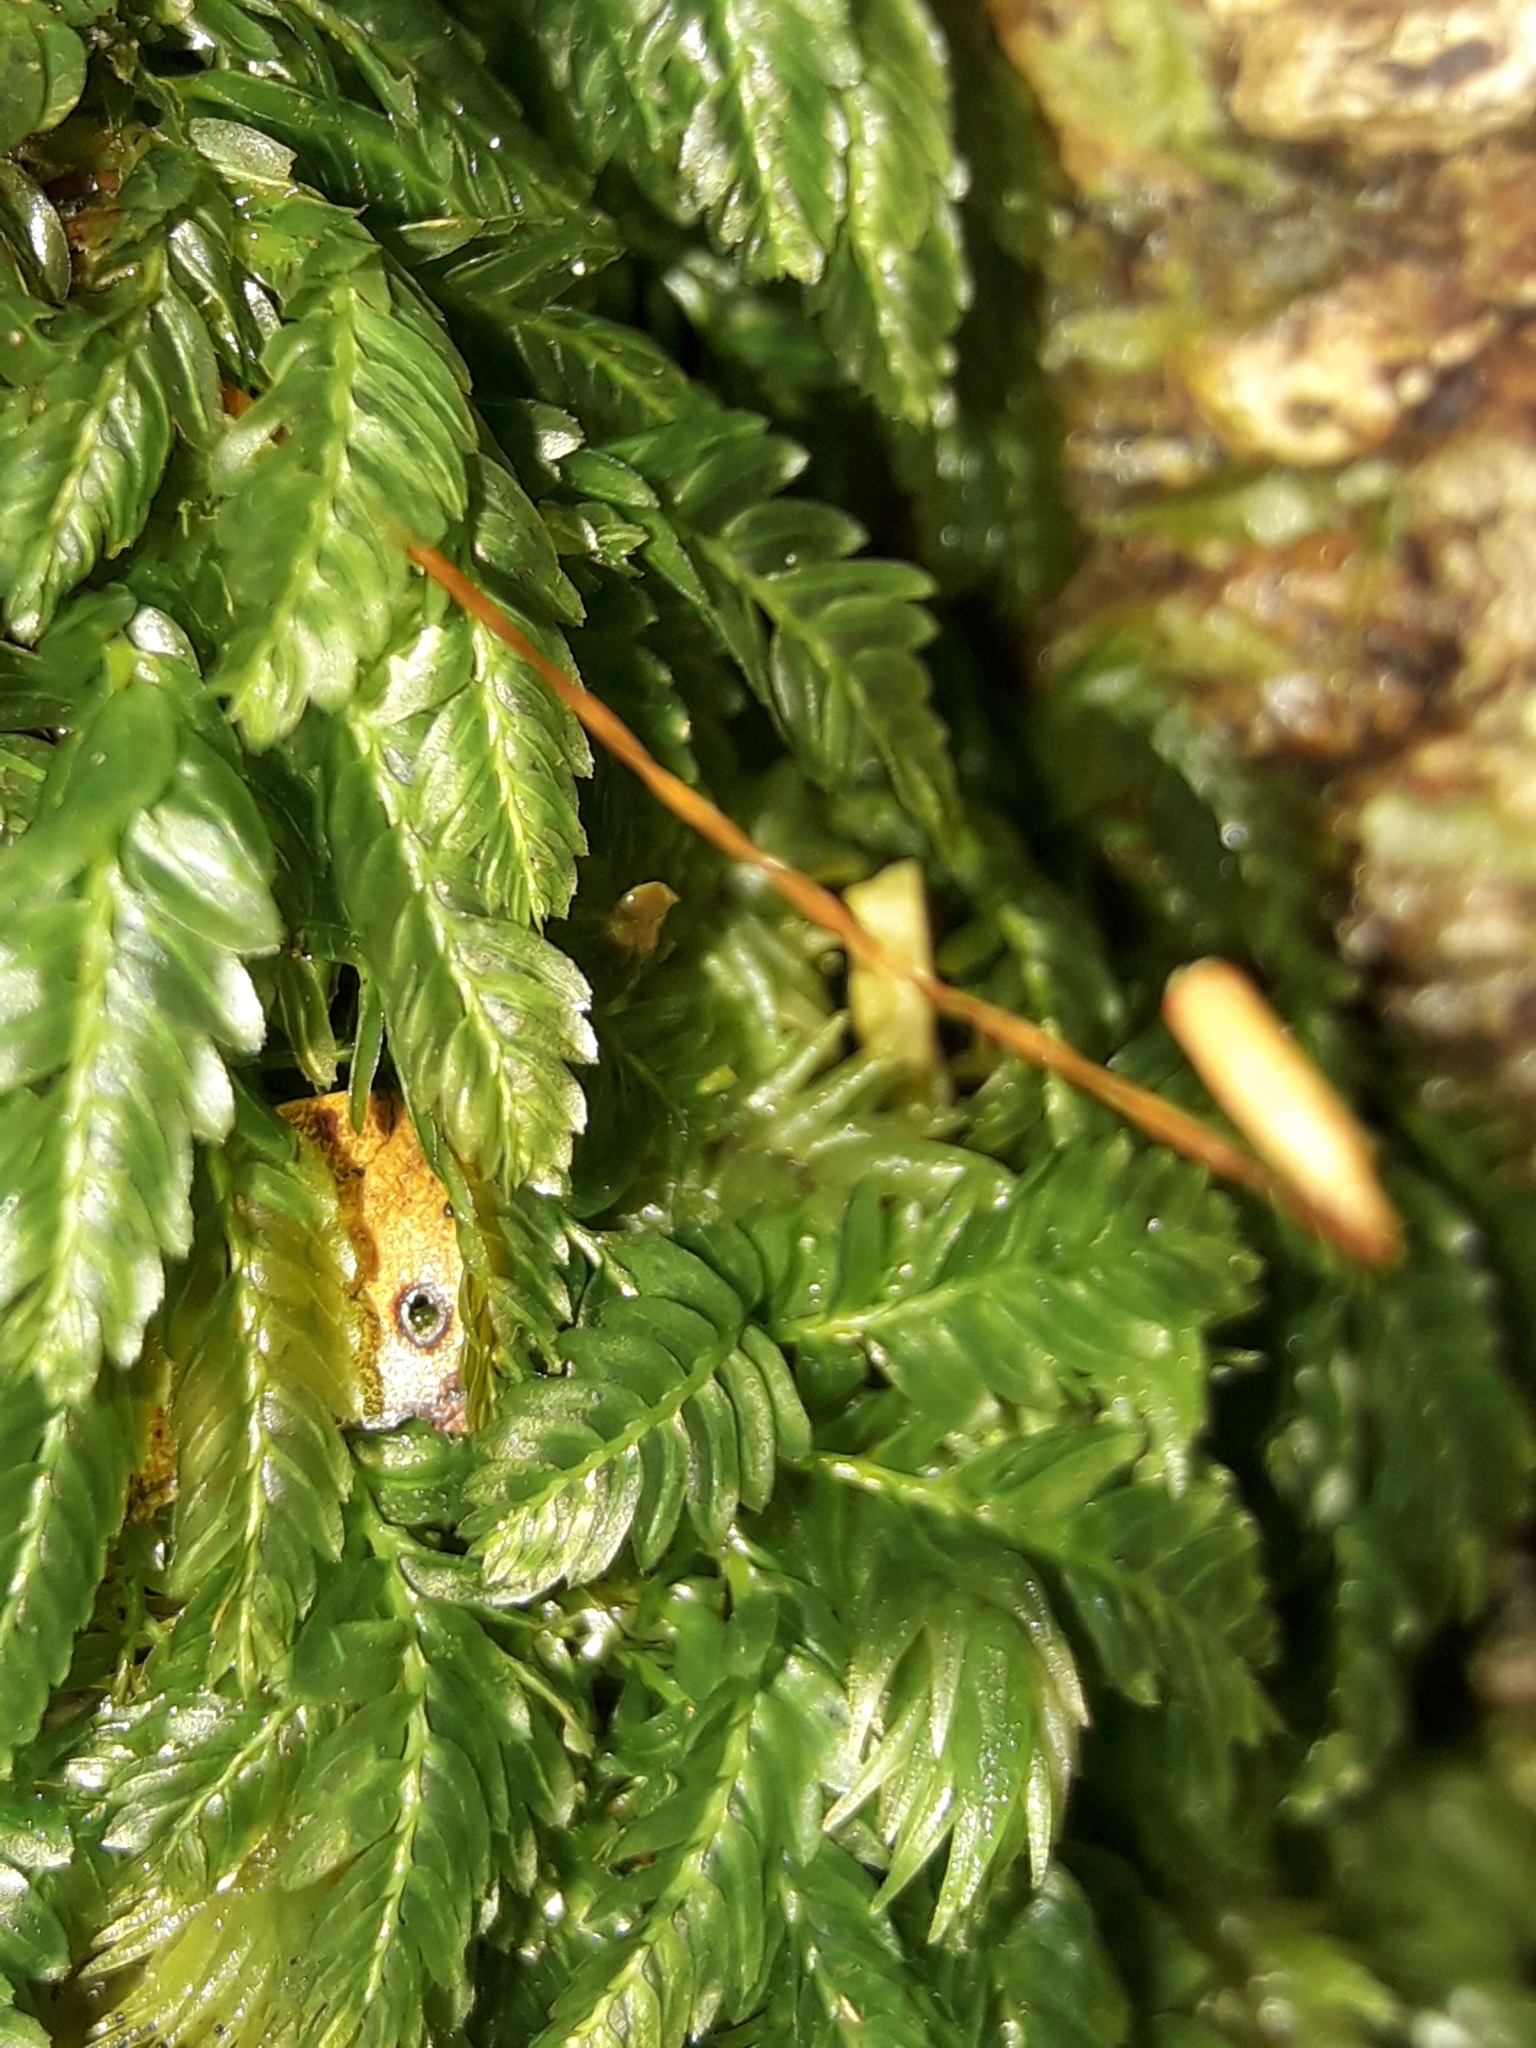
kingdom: Plantae
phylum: Bryophyta
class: Bryopsida
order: Rhizogoniales
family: Rhizogoniaceae
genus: Rhizogonium
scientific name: Rhizogonium distichum
